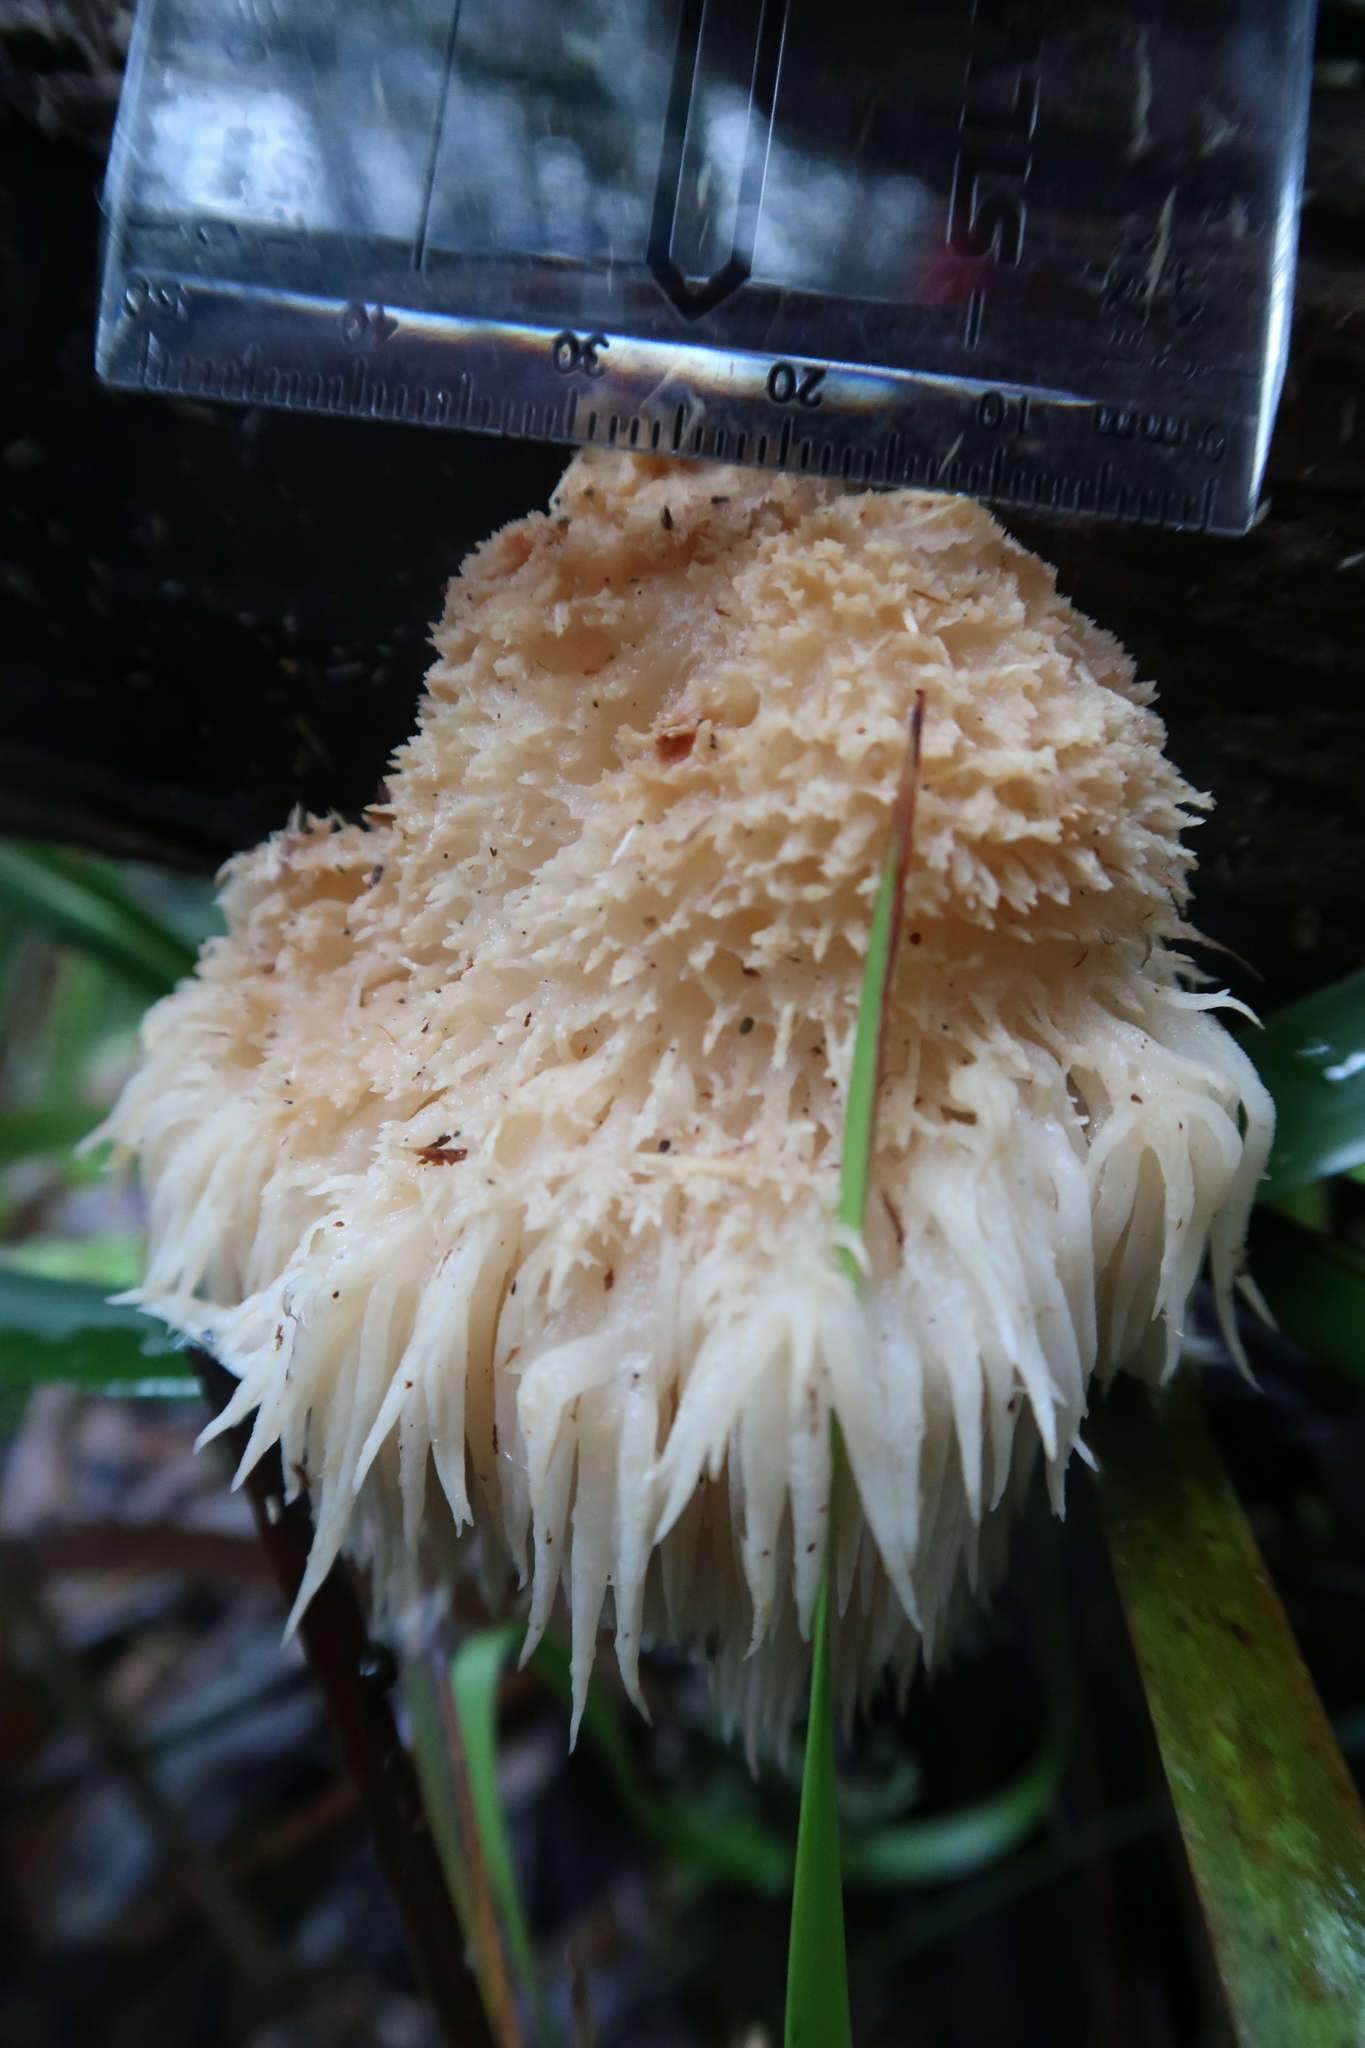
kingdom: Fungi
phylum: Basidiomycota
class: Agaricomycetes
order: Russulales
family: Hericiaceae
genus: Hericium
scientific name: Hericium coralloides
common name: Coral tooth
